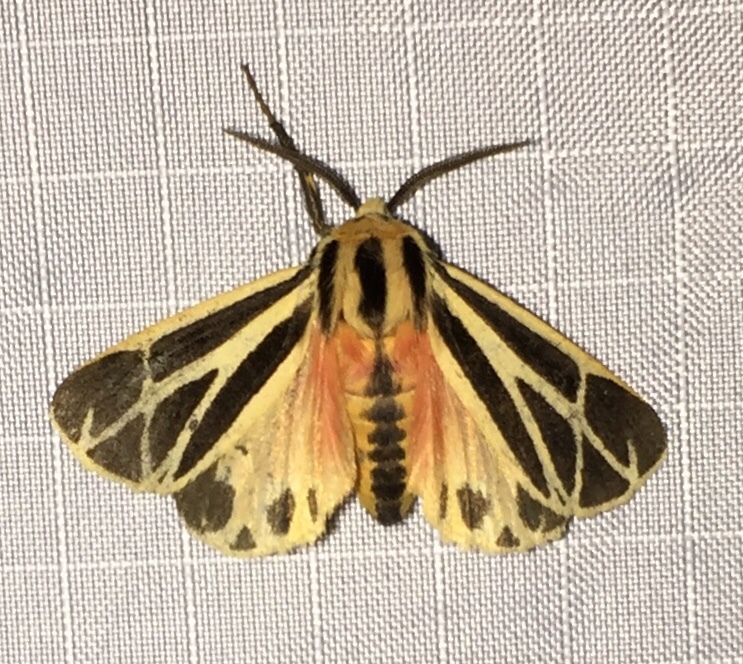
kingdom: Animalia
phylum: Arthropoda
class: Insecta
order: Lepidoptera
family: Erebidae
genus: Apantesis
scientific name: Apantesis phalerata
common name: Harnessed tiger moth
